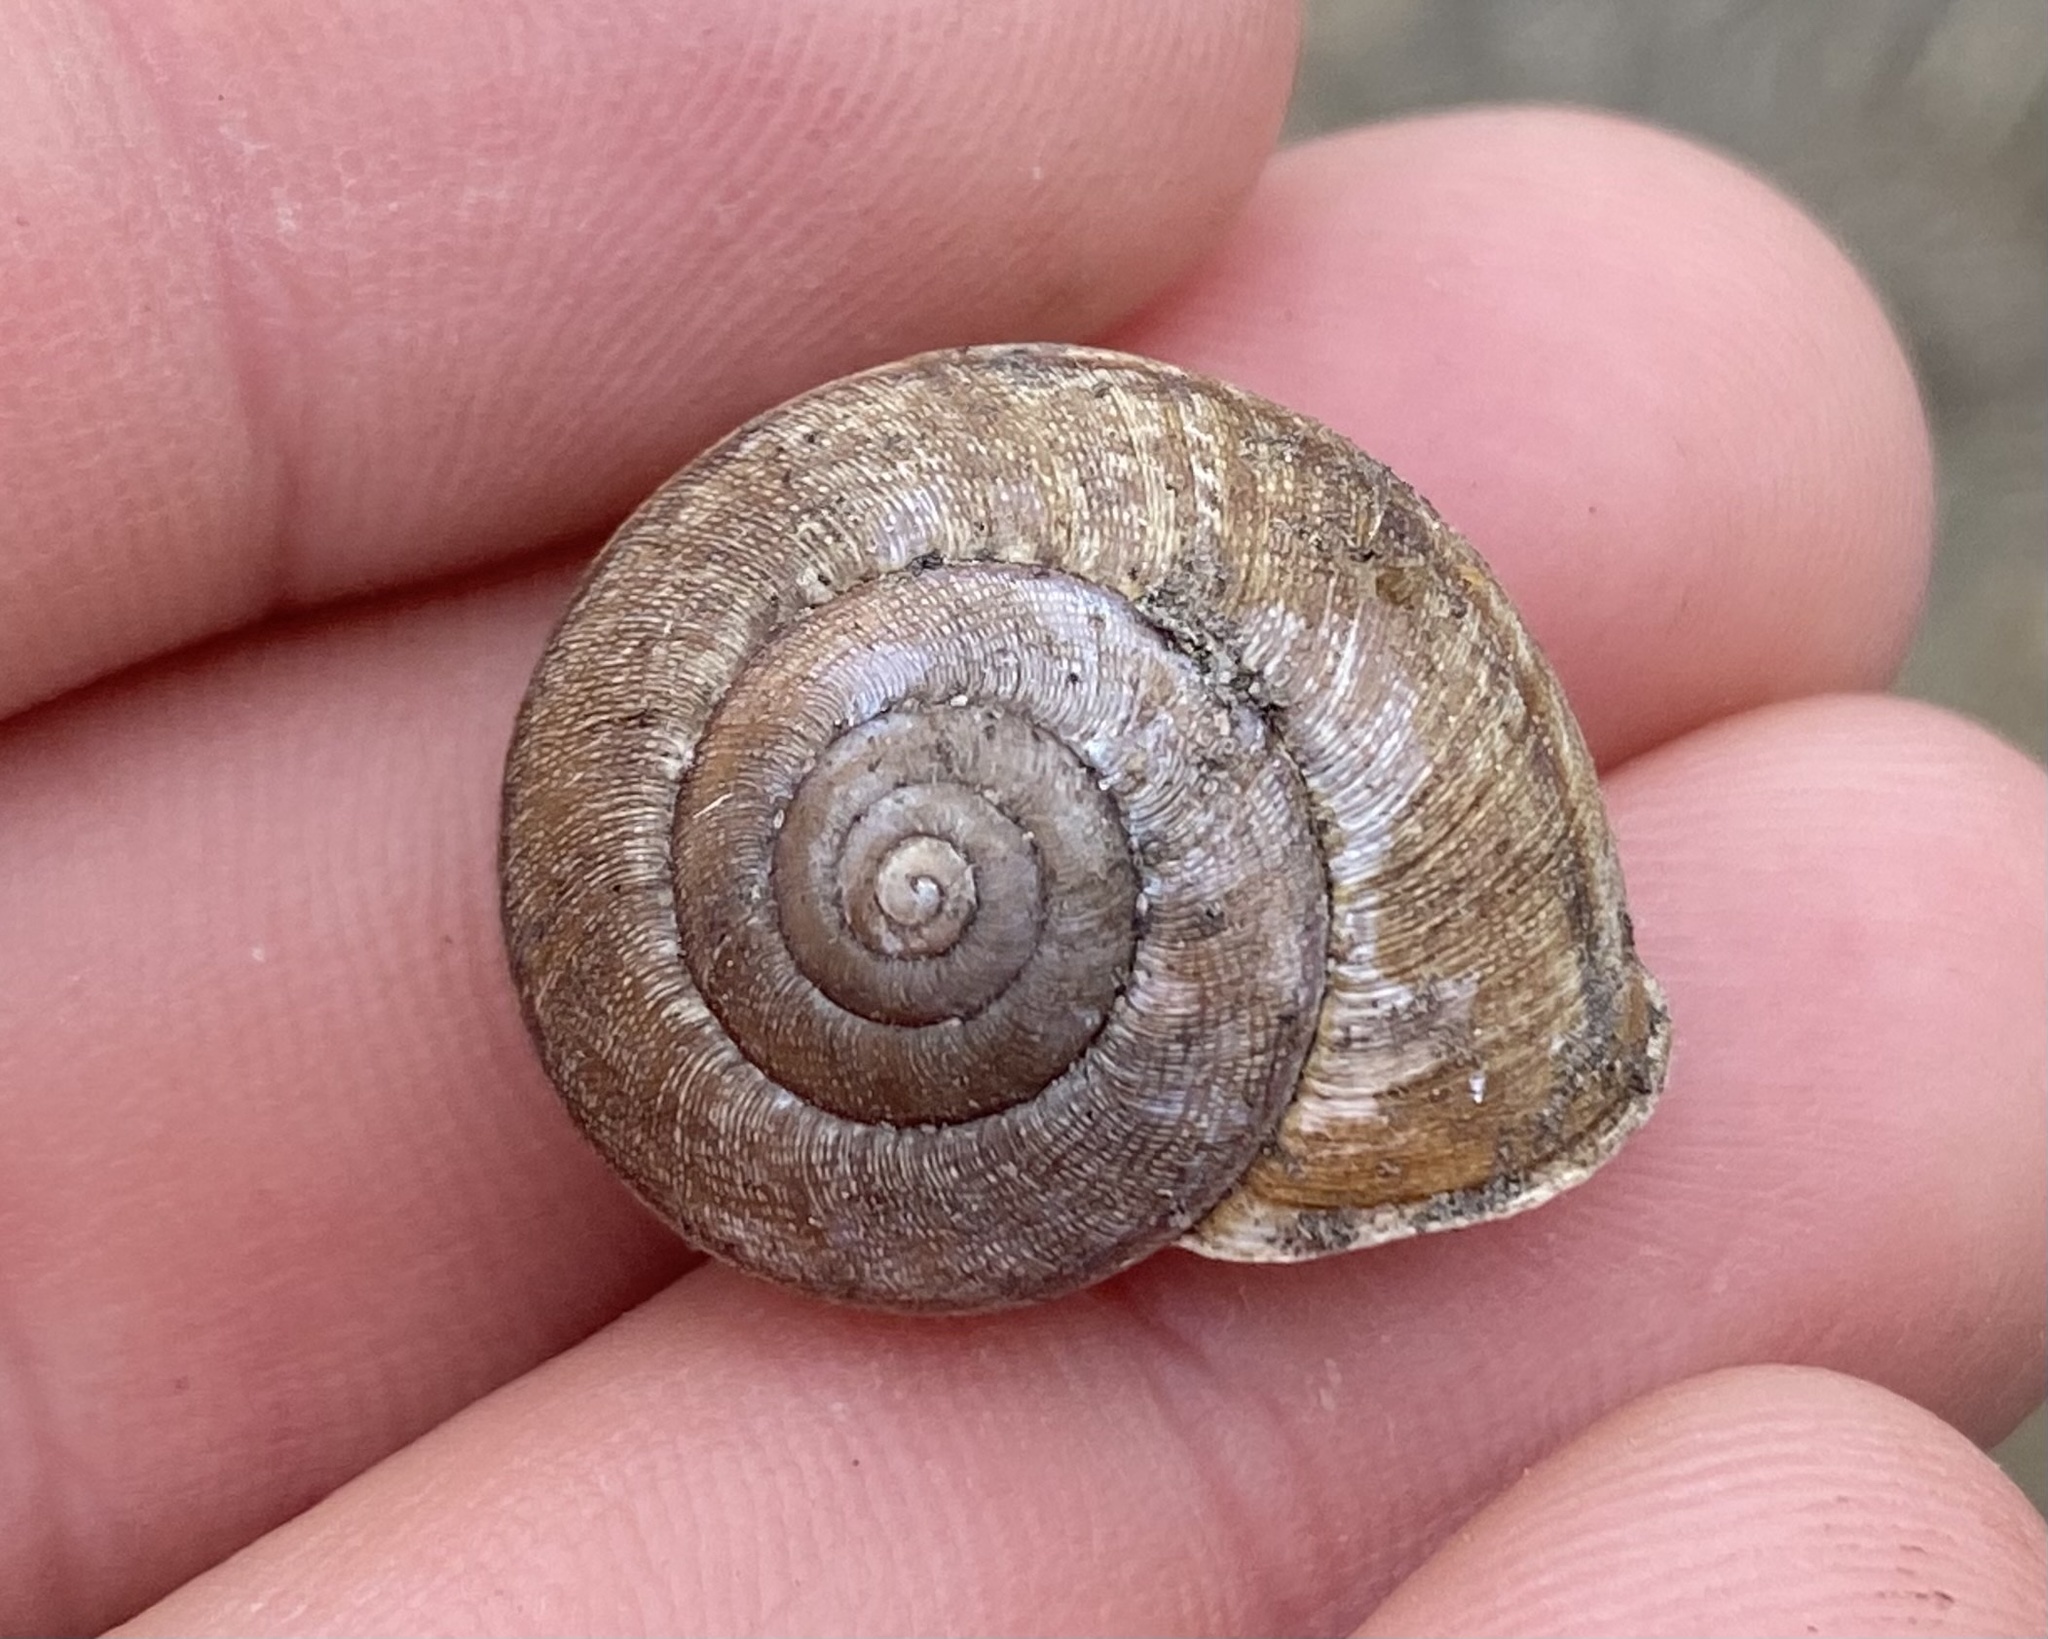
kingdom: Animalia
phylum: Mollusca
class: Gastropoda
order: Stylommatophora
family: Xanthonychidae
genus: Helminthoglypta
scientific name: Helminthoglypta nickliniana
